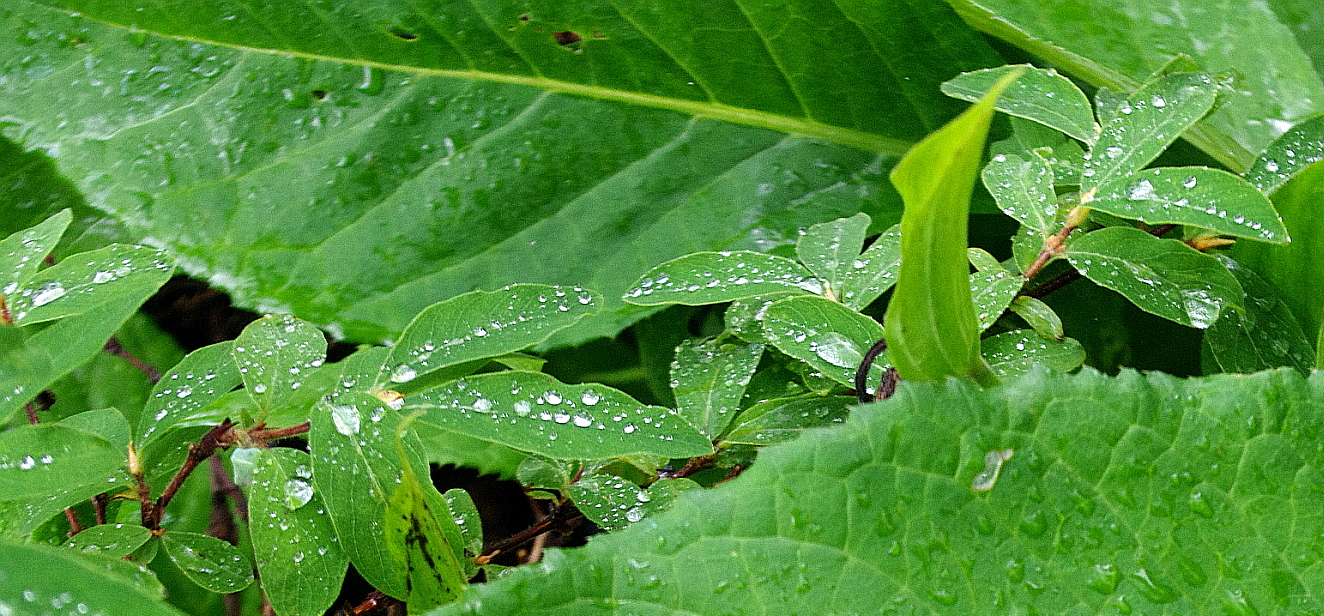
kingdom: Plantae
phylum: Tracheophyta
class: Magnoliopsida
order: Dipsacales
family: Caprifoliaceae
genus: Lonicera
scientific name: Lonicera caerulea
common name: Blue honeysuckle
